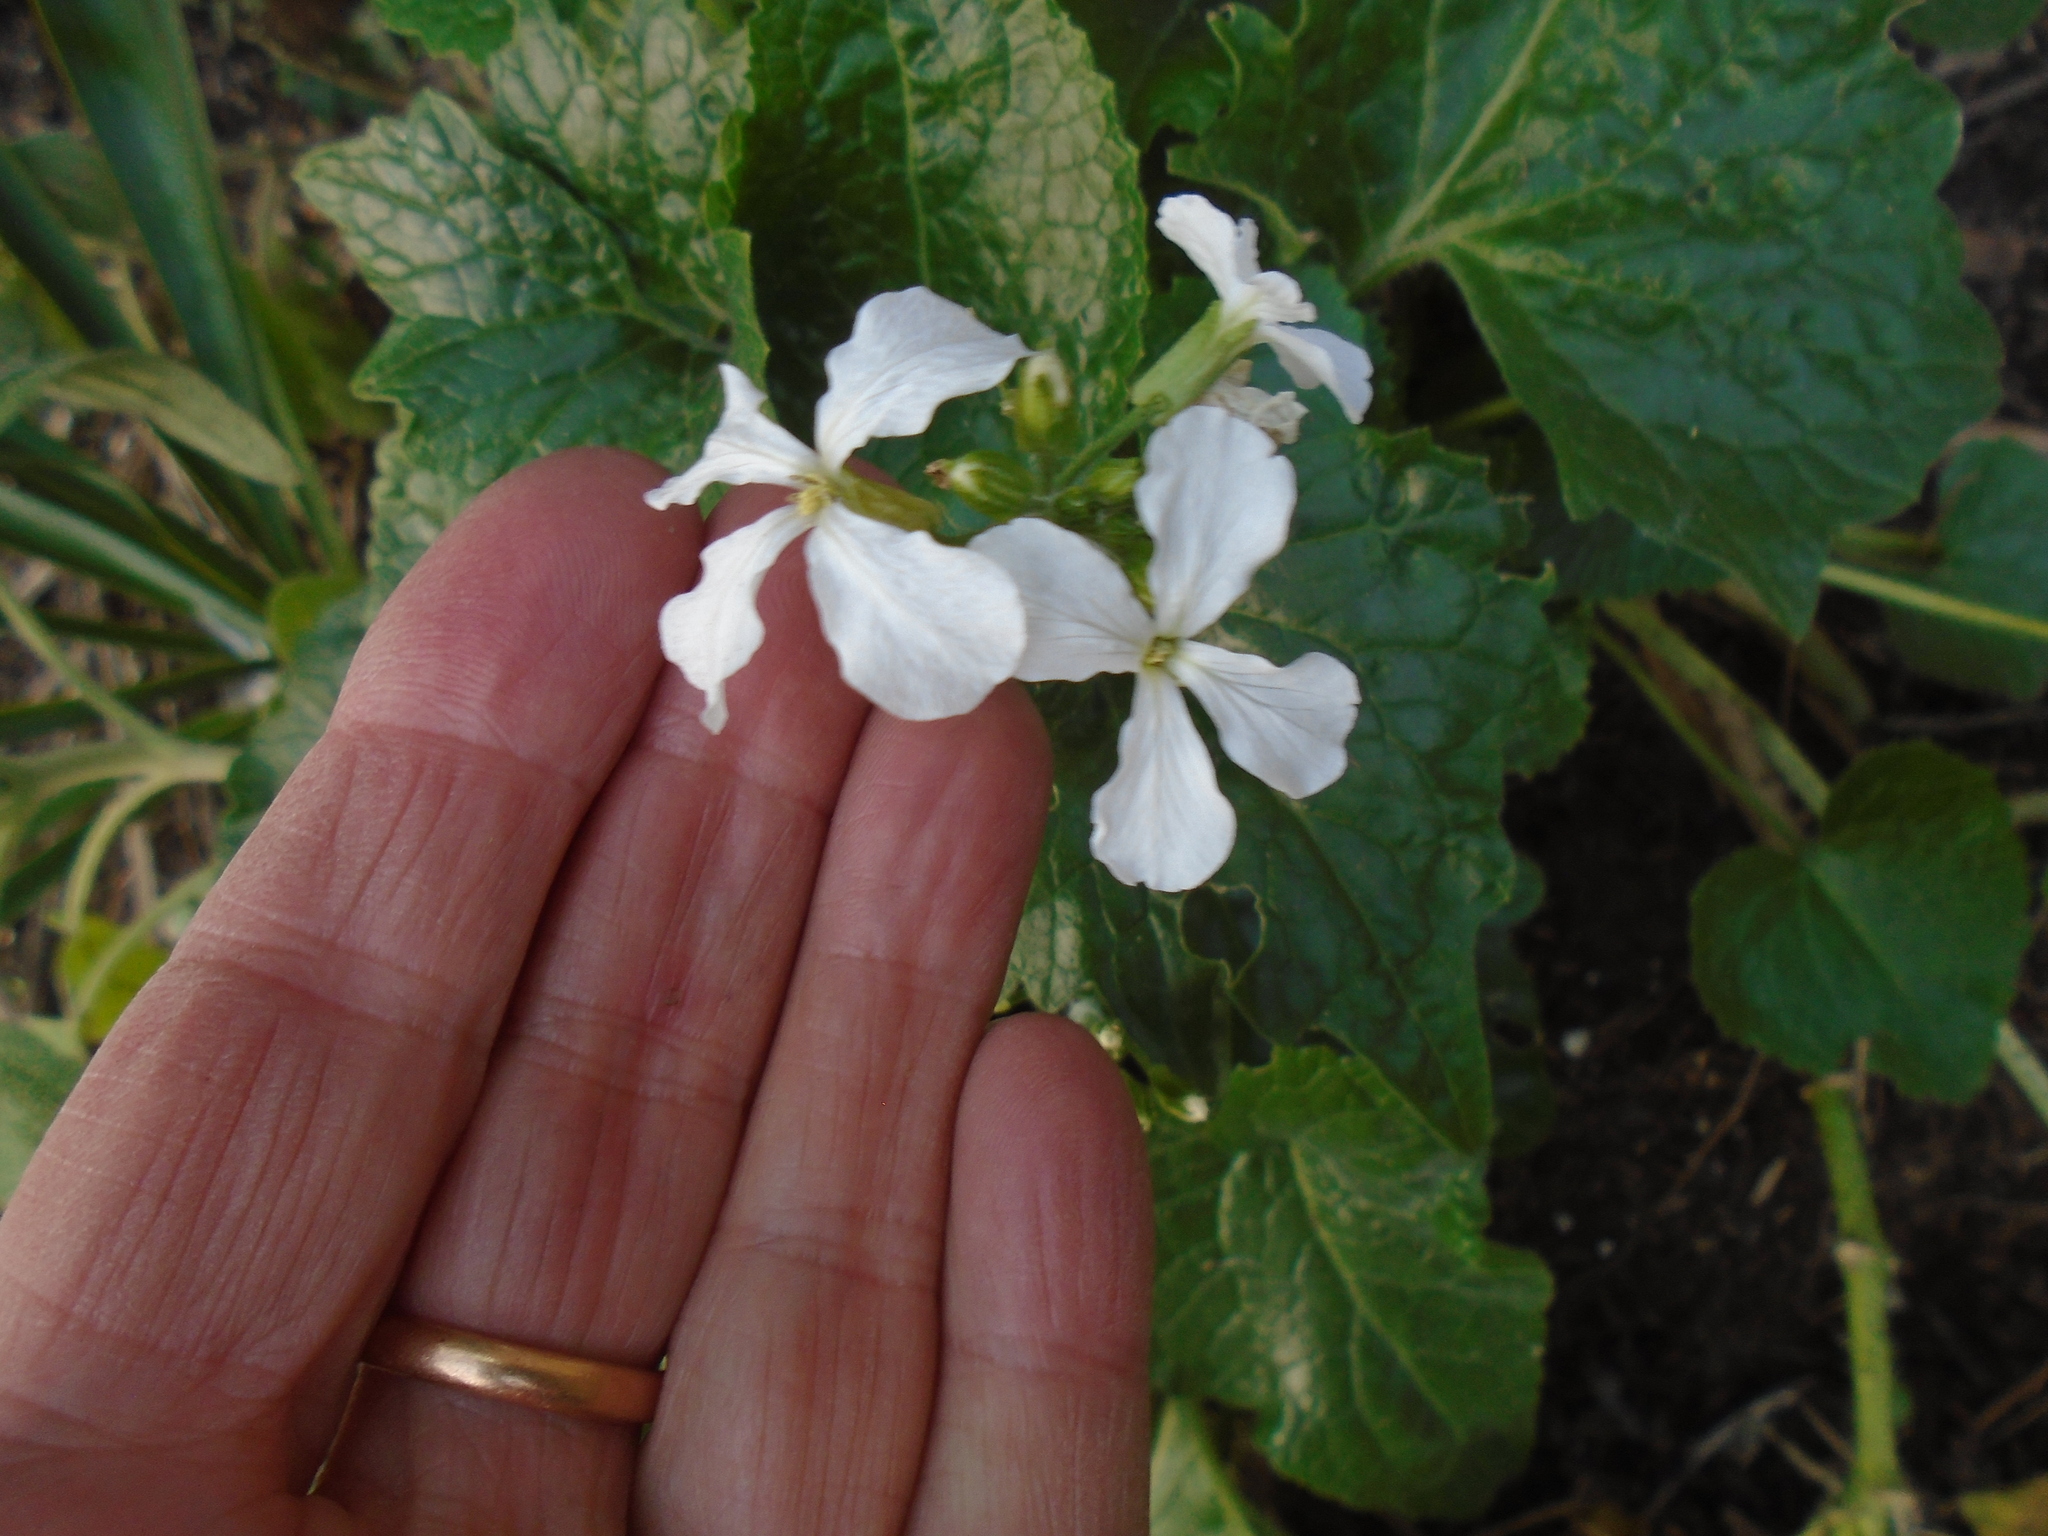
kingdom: Plantae
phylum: Tracheophyta
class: Magnoliopsida
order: Brassicales
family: Brassicaceae
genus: Lunaria
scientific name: Lunaria annua
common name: Honesty
